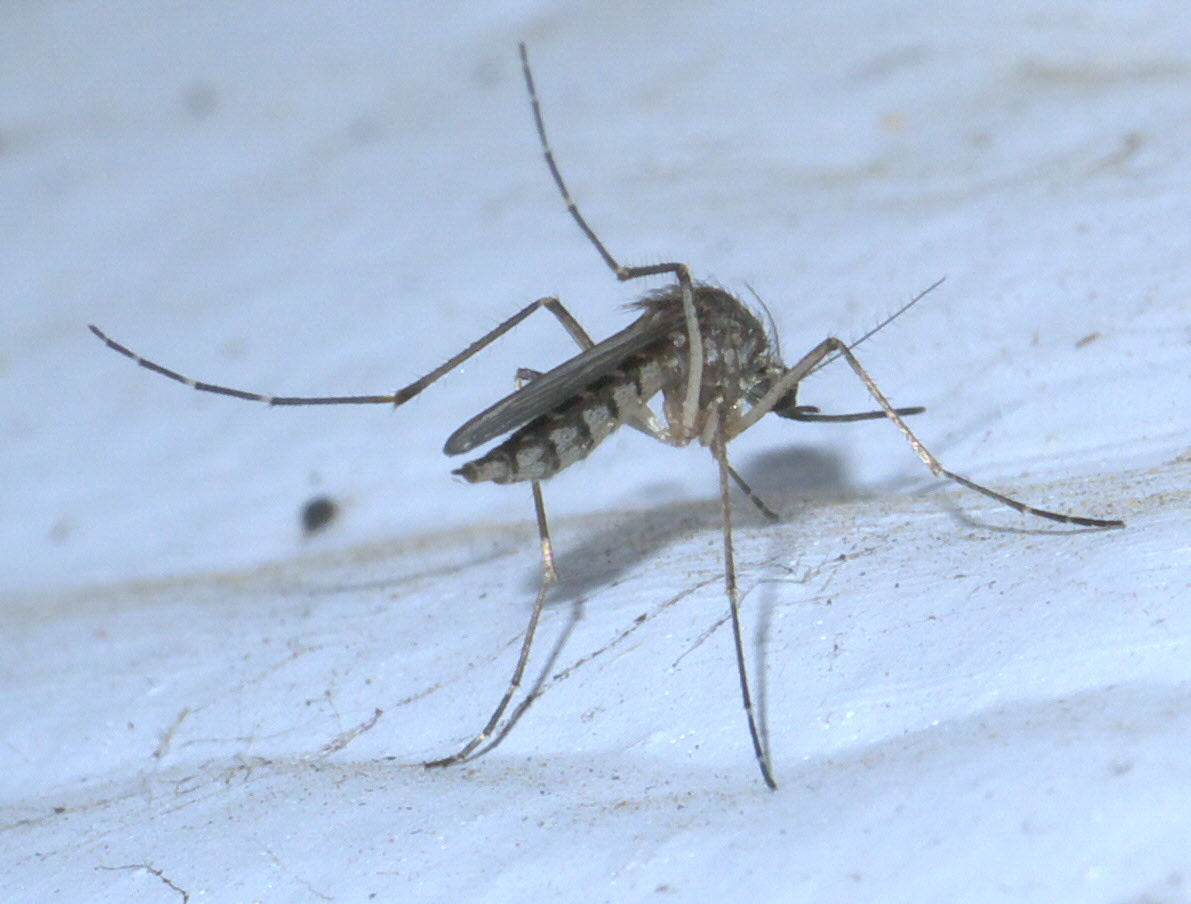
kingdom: Animalia
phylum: Arthropoda
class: Insecta
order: Diptera
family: Culicidae
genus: Aedes
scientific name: Aedes vexans
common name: Inland floodwater mosquito
